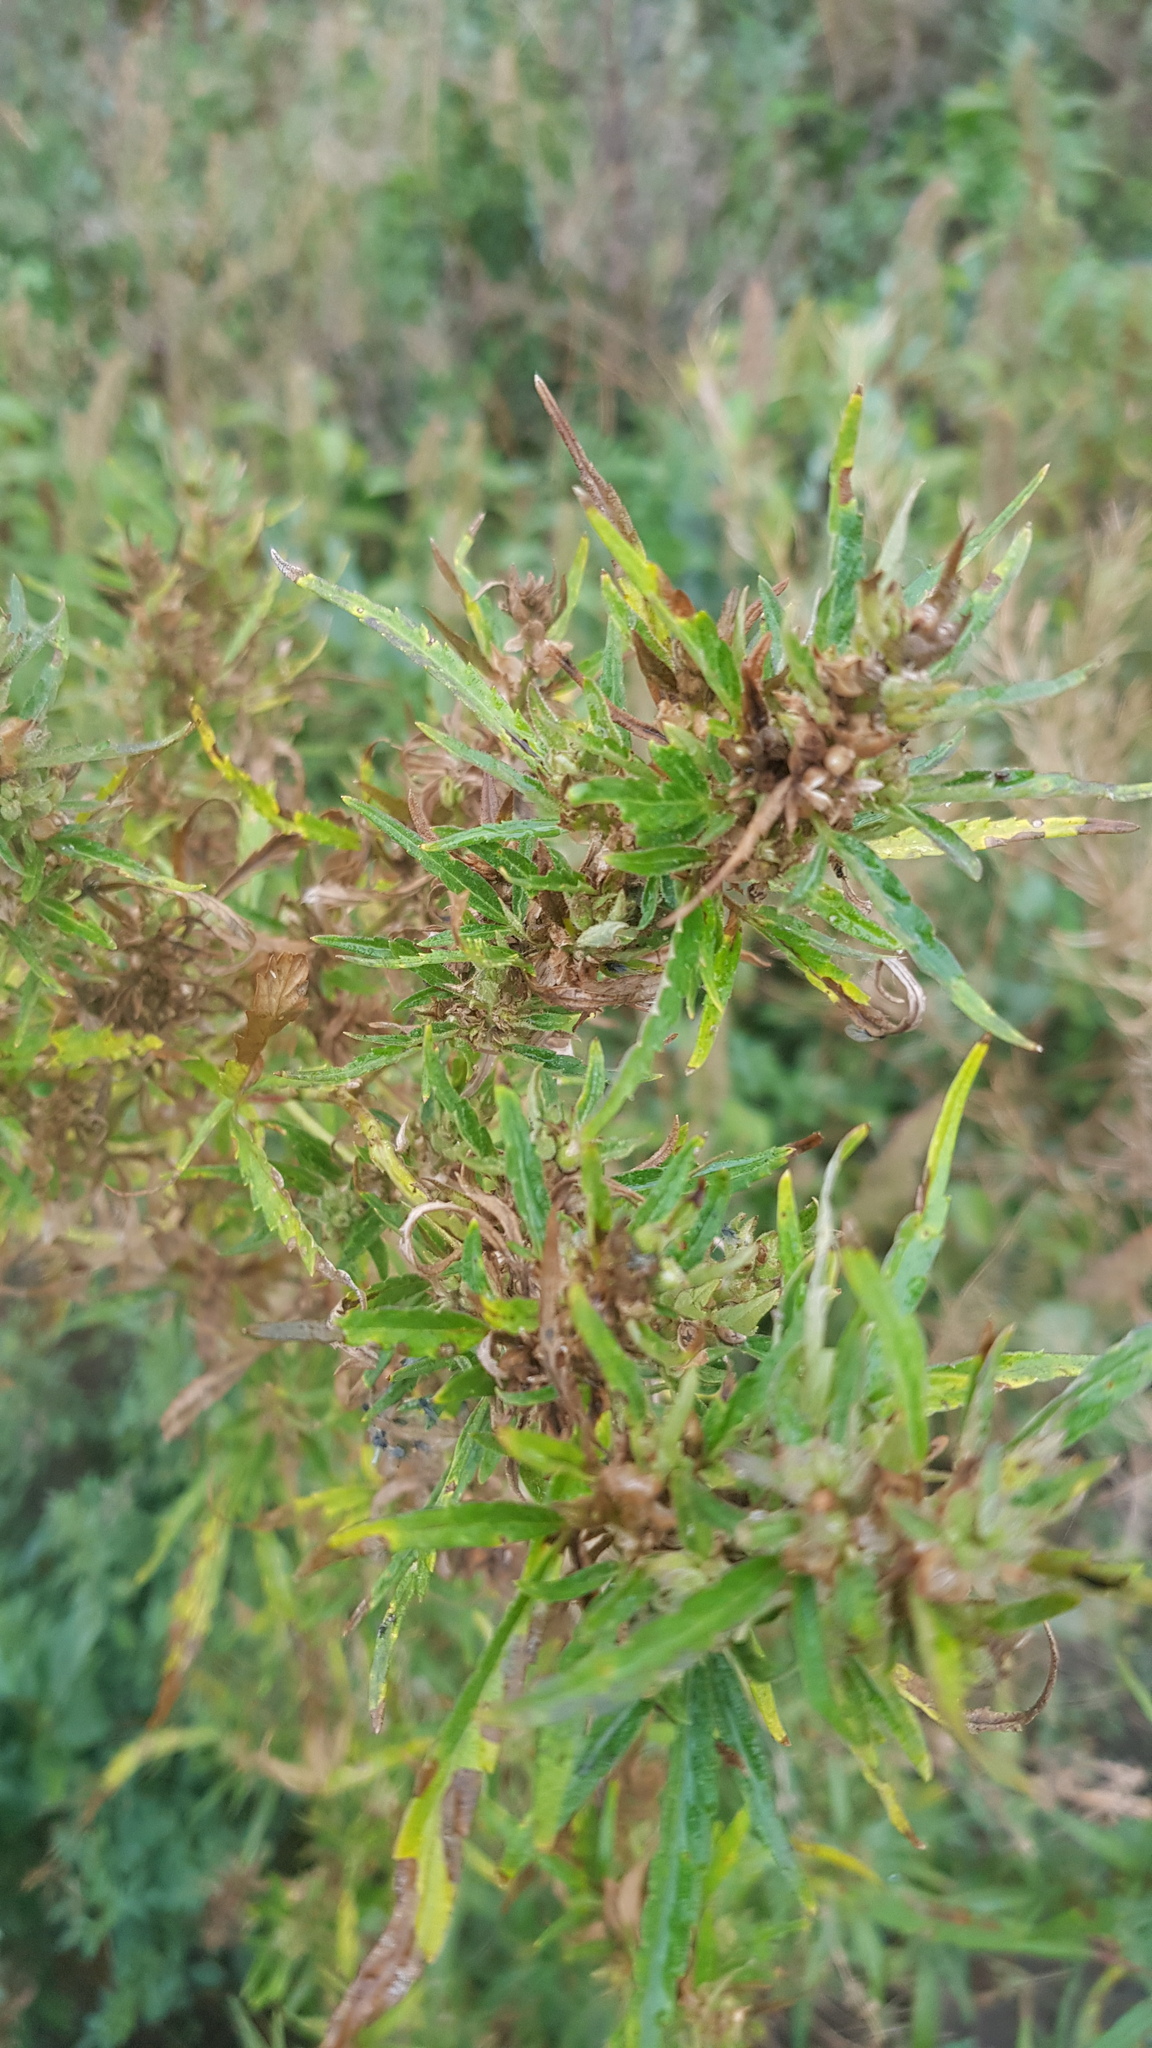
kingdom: Plantae
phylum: Tracheophyta
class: Magnoliopsida
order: Rosales
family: Cannabaceae
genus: Cannabis
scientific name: Cannabis sativa
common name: Hemp
